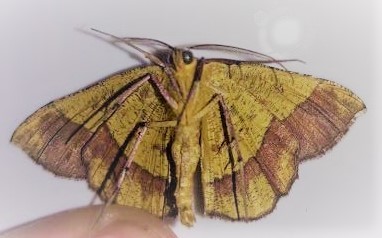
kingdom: Animalia
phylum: Arthropoda
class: Insecta
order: Lepidoptera
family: Geometridae
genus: Erastria
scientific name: Erastria decrepitaria
